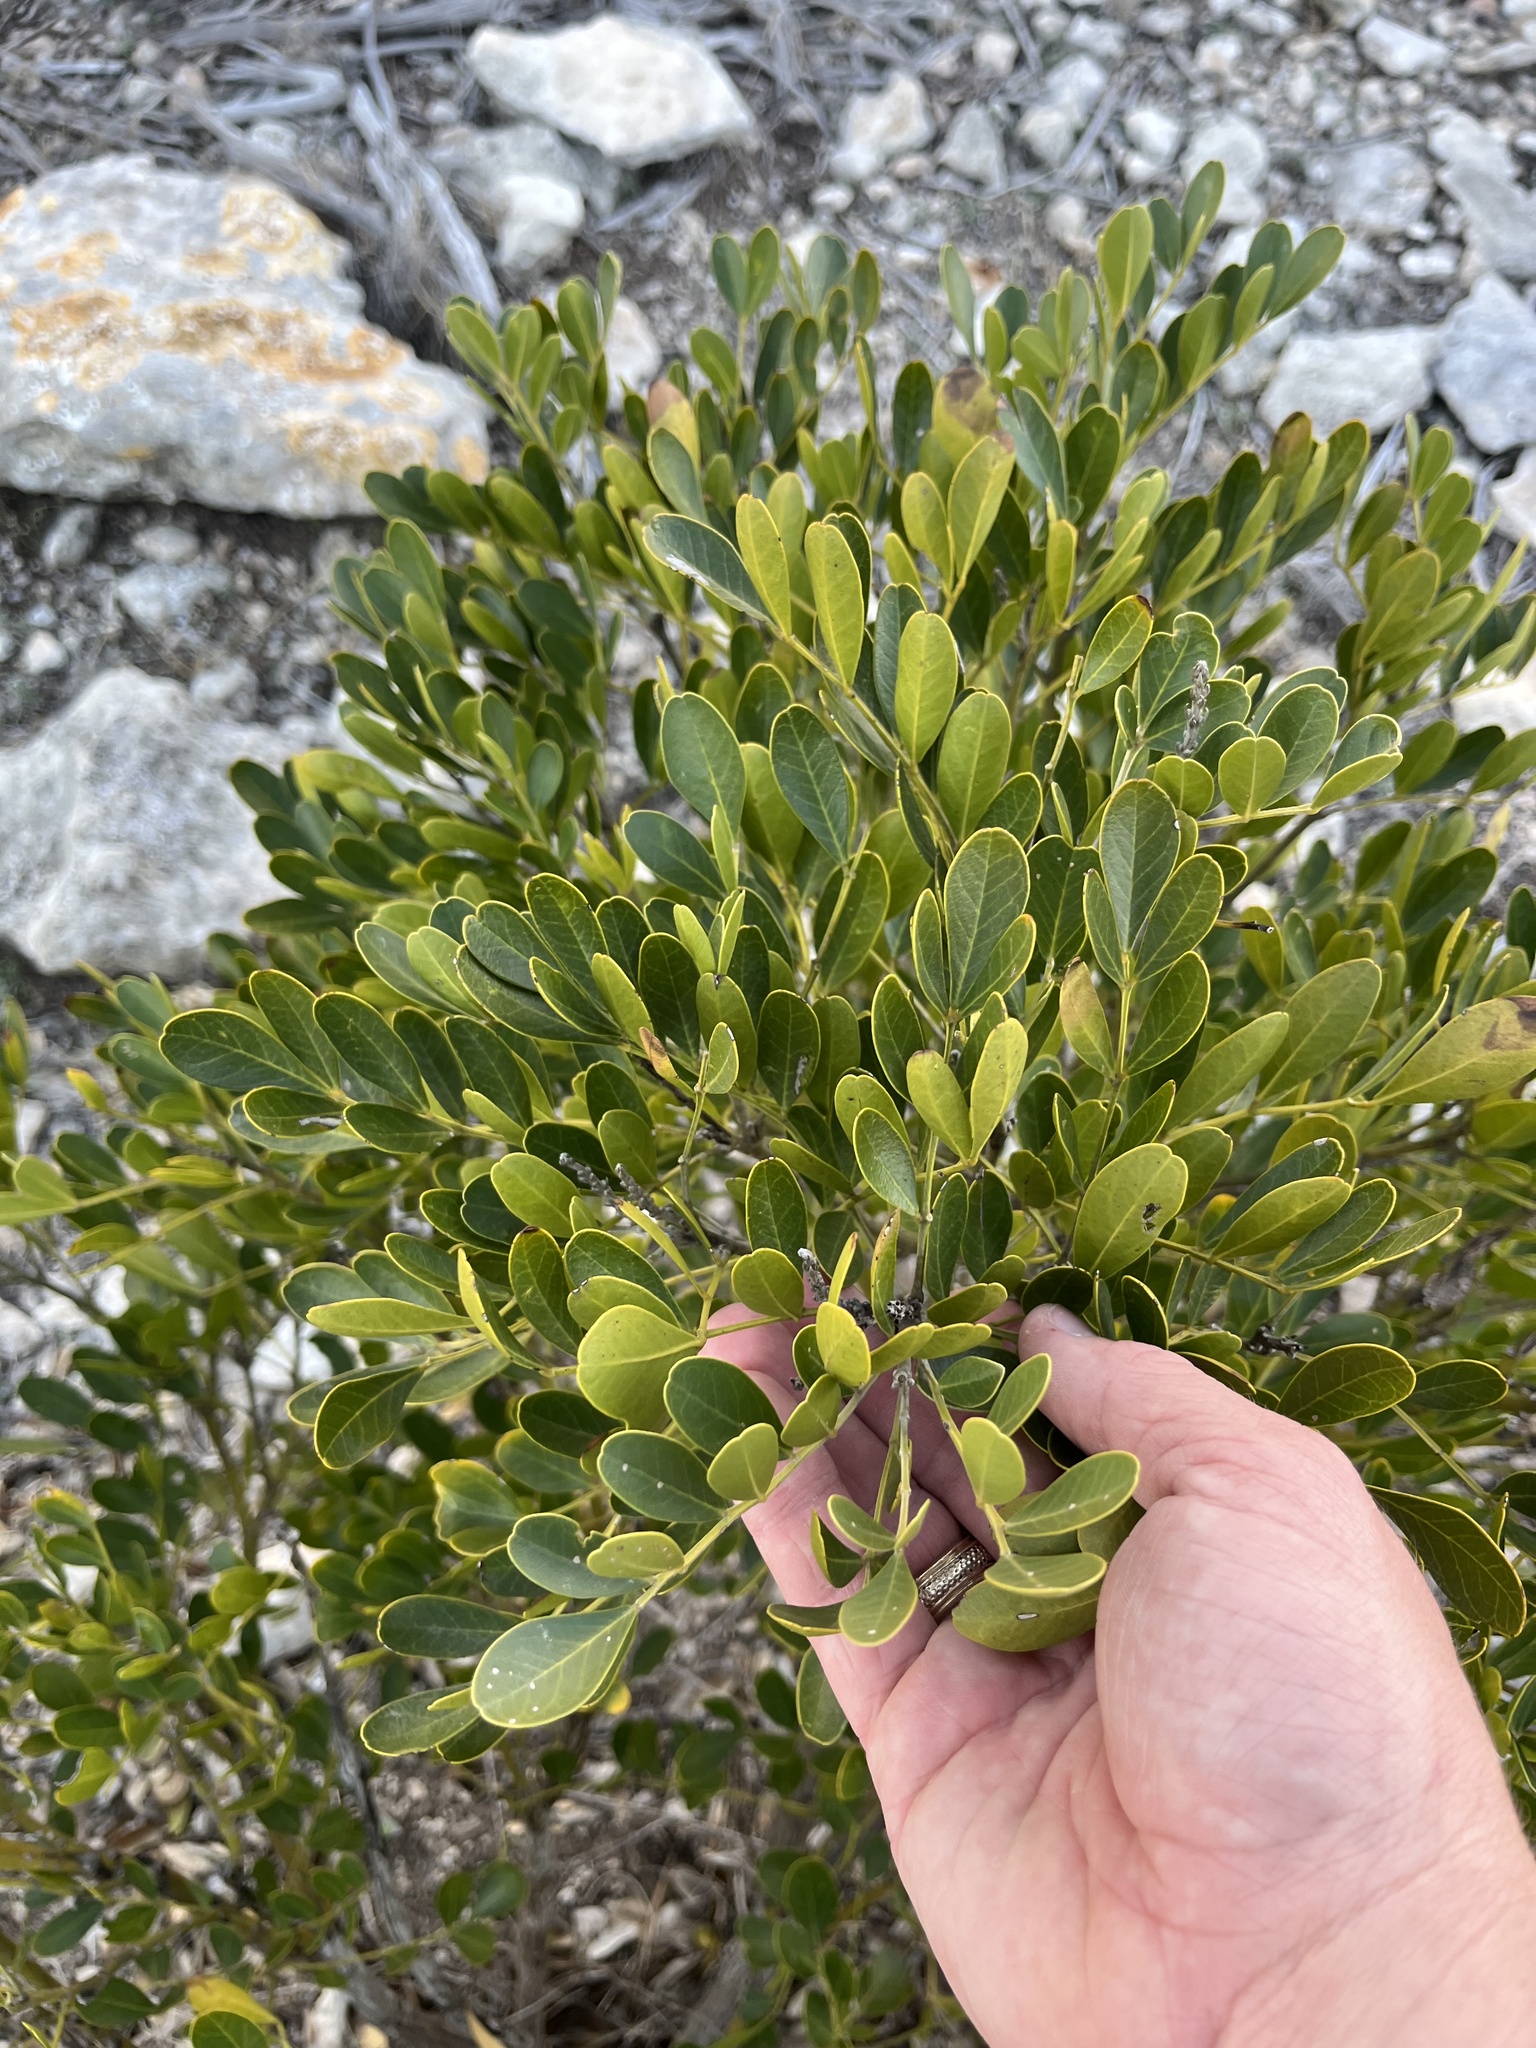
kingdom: Plantae
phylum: Tracheophyta
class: Magnoliopsida
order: Fabales
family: Fabaceae
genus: Dermatophyllum
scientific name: Dermatophyllum secundiflorum
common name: Texas-mountain-laurel
